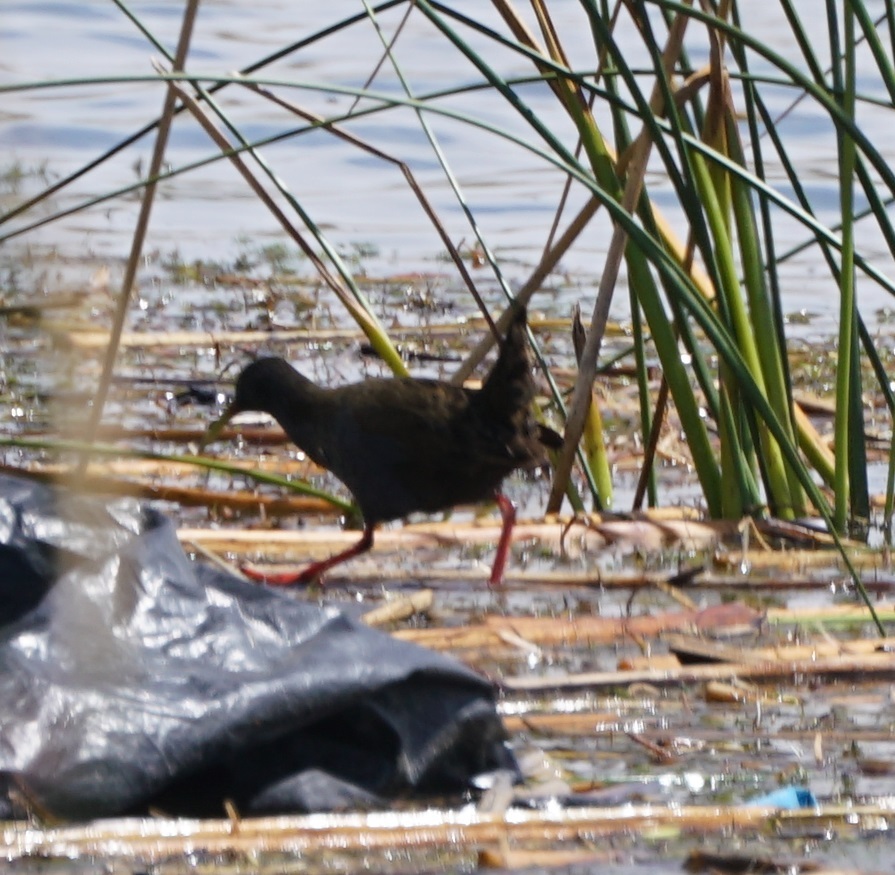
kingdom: Animalia
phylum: Chordata
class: Aves
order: Gruiformes
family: Rallidae
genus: Pardirallus
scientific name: Pardirallus sanguinolentus
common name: Plumbeous rail
